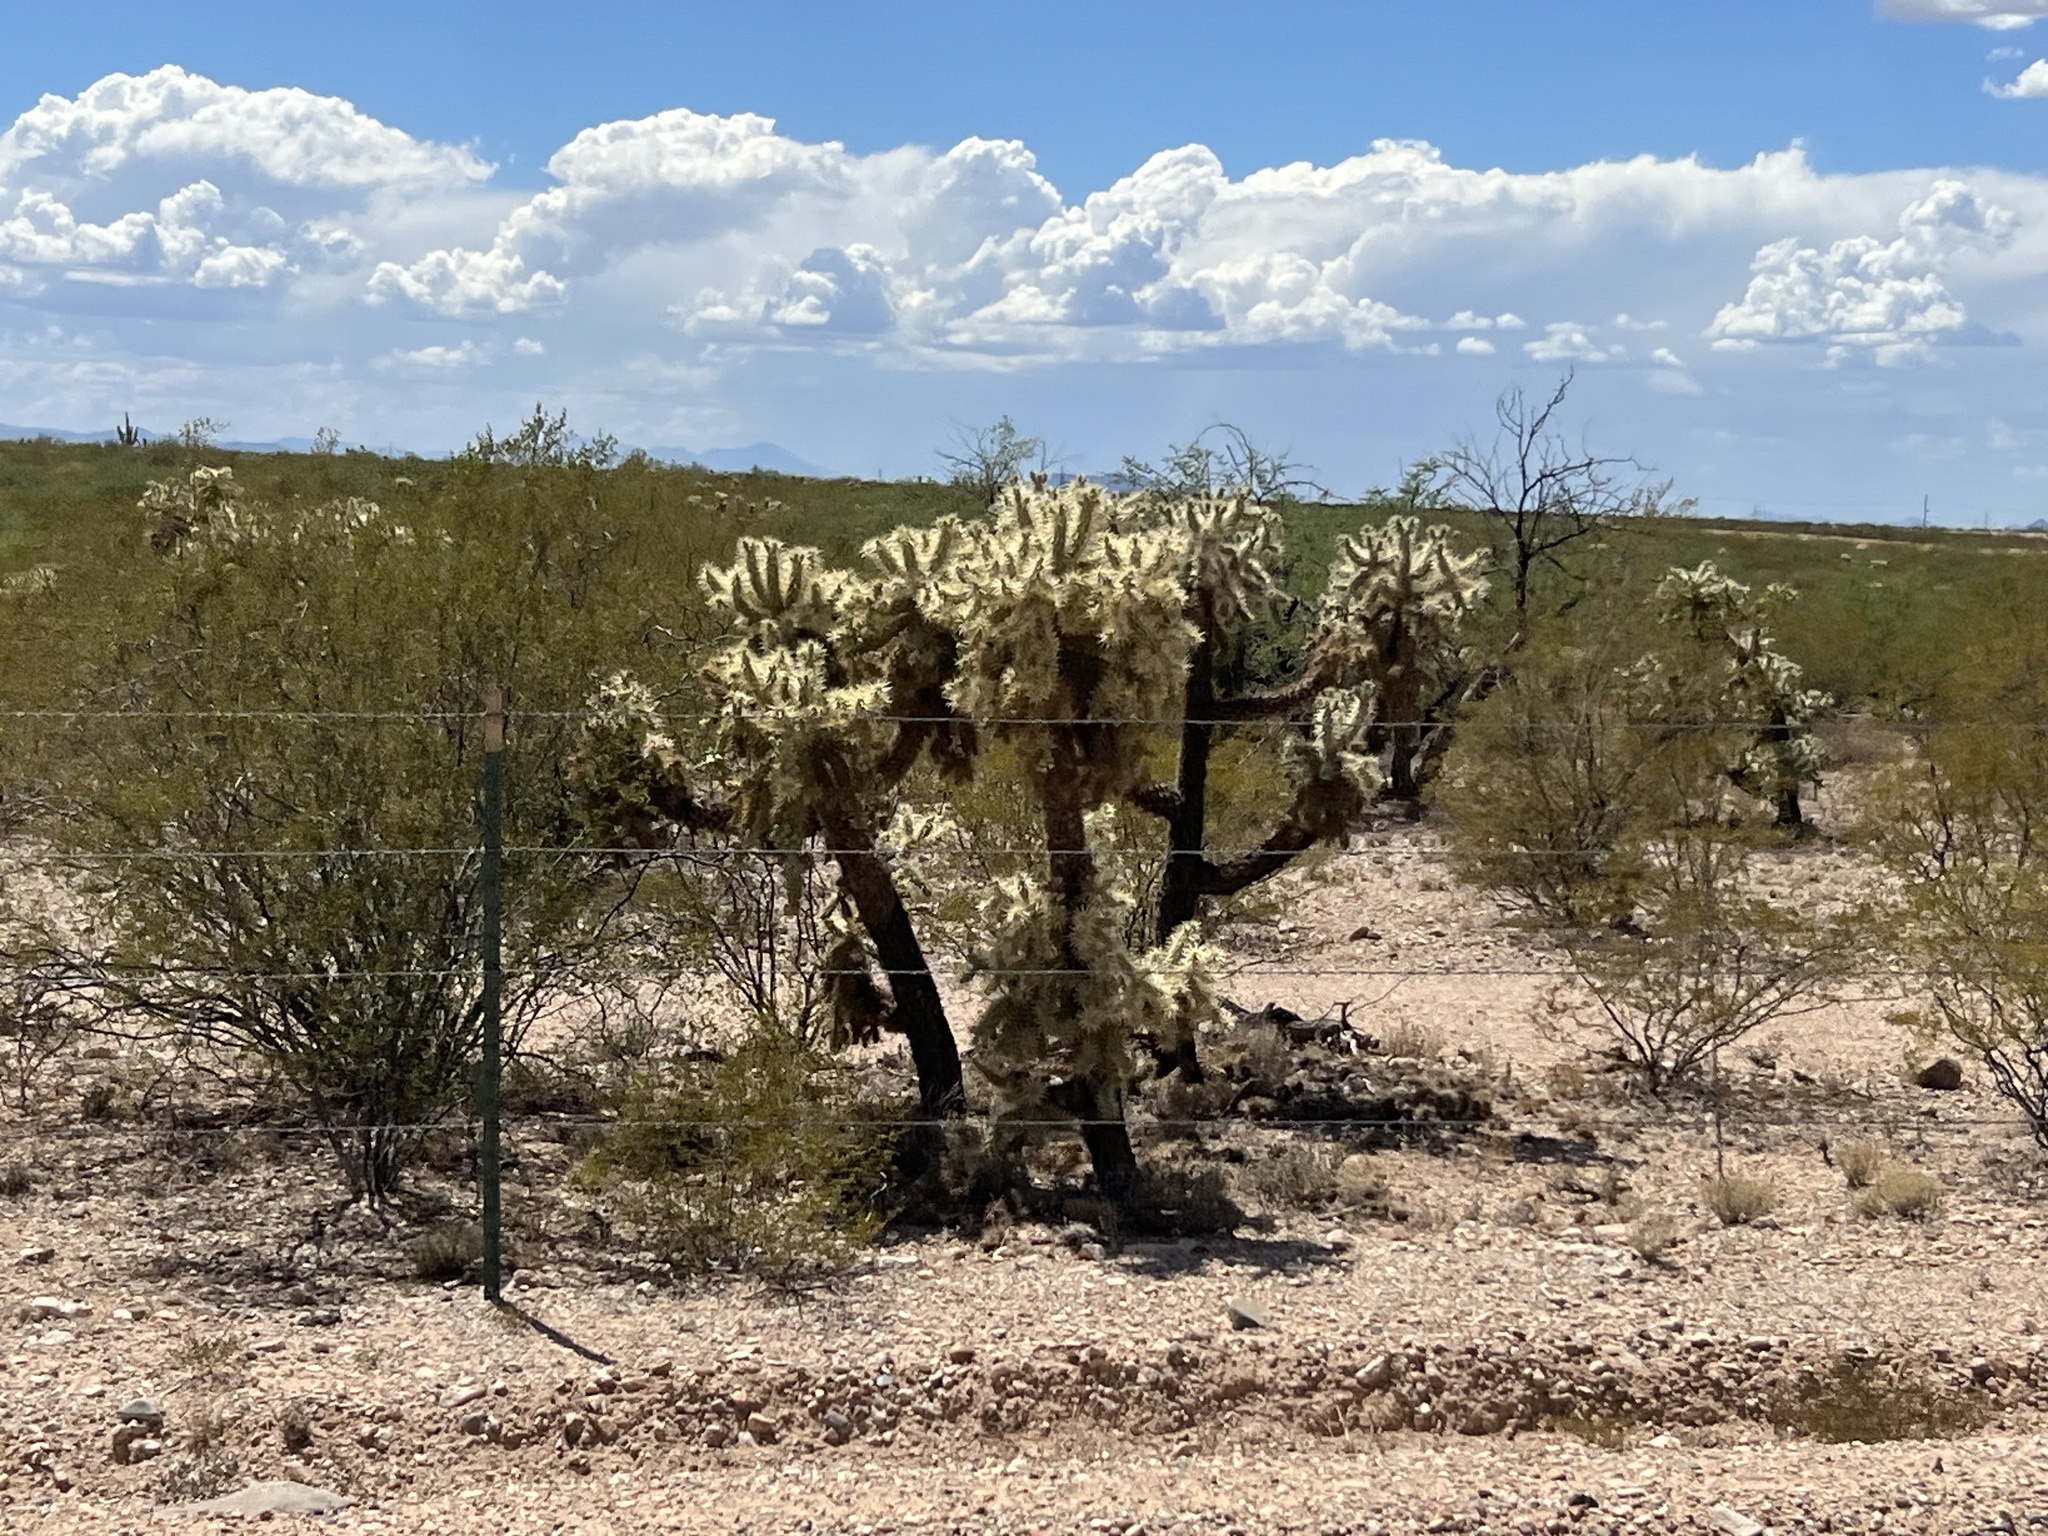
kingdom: Plantae
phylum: Tracheophyta
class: Magnoliopsida
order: Caryophyllales
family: Cactaceae
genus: Cylindropuntia
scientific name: Cylindropuntia fulgida
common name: Jumping cholla
